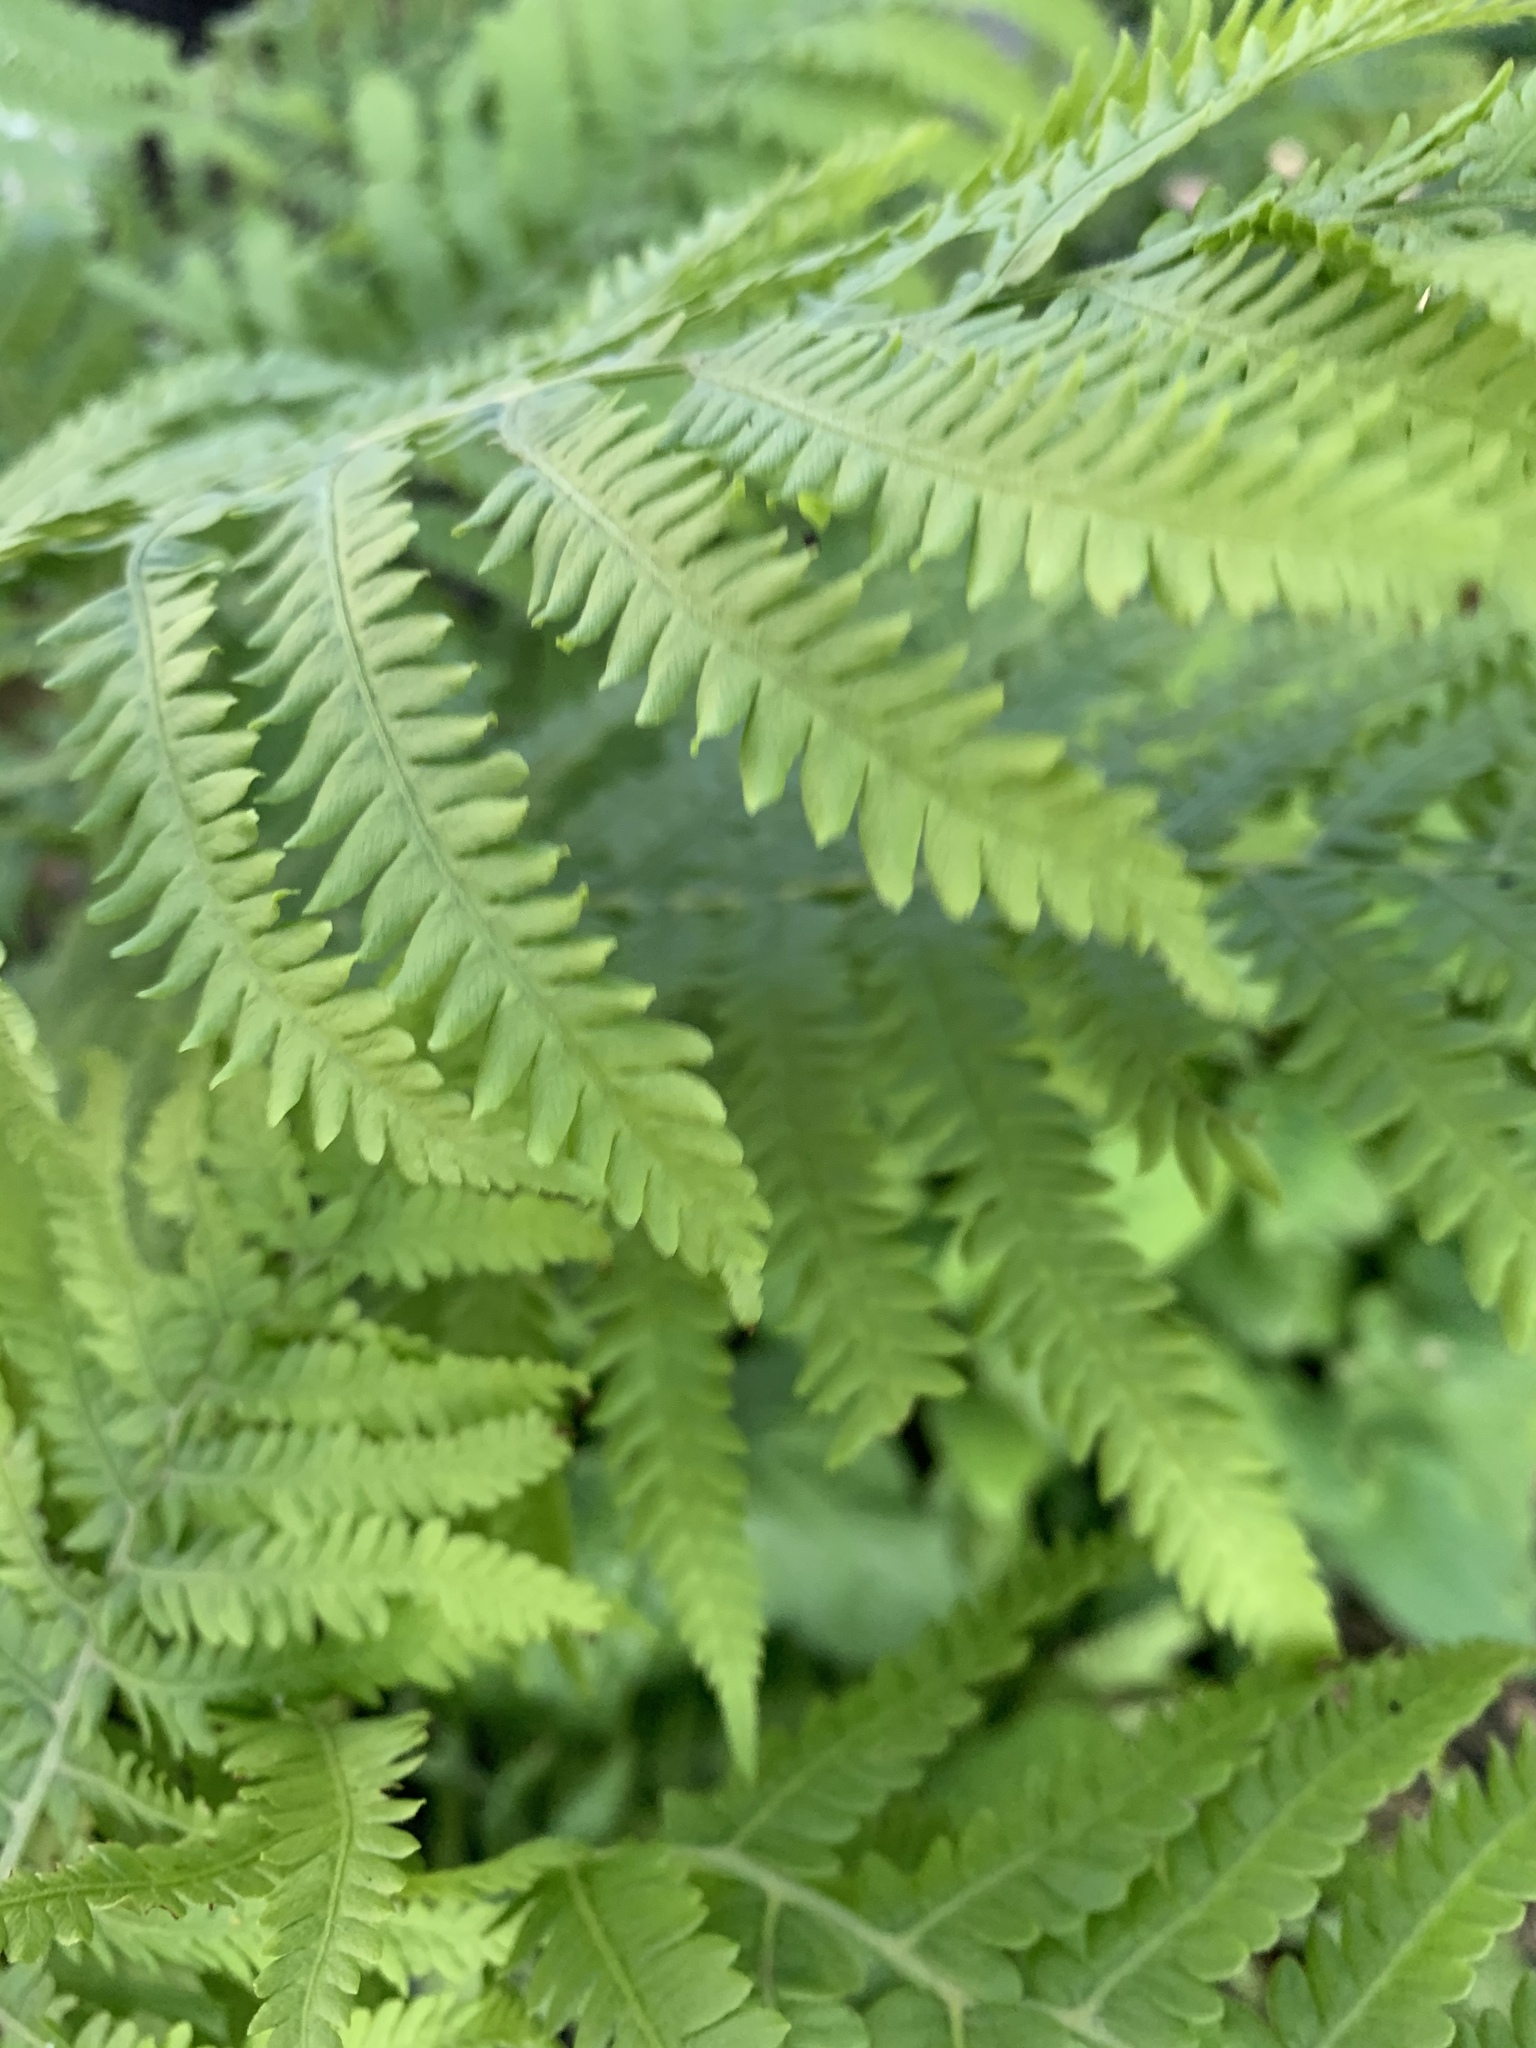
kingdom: Plantae
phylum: Tracheophyta
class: Polypodiopsida
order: Polypodiales
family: Onocleaceae
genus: Matteuccia
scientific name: Matteuccia struthiopteris
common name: Ostrich fern
